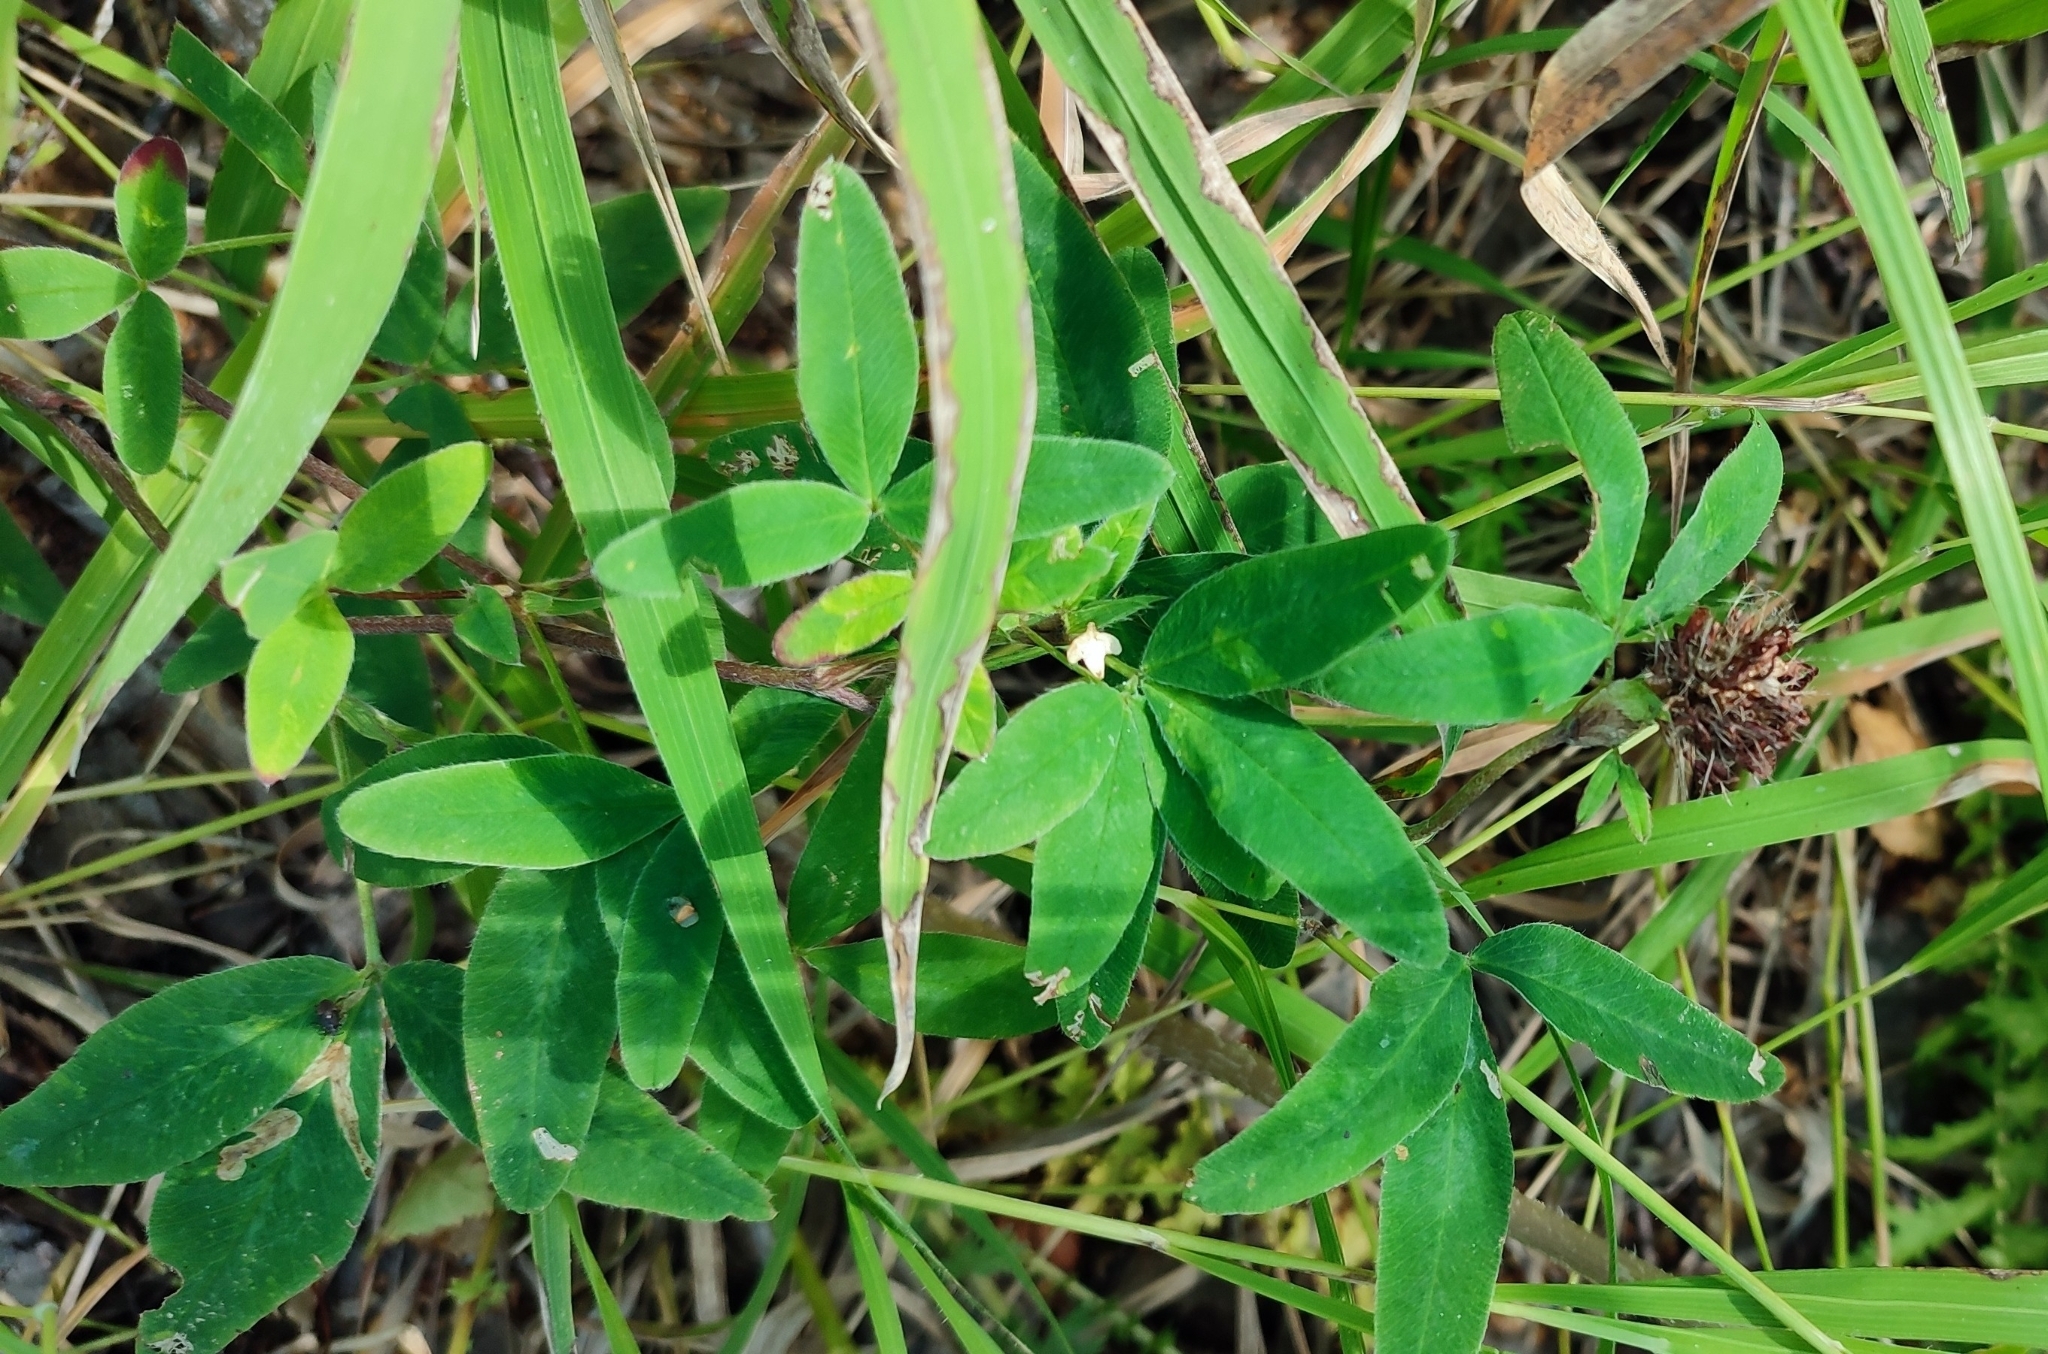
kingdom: Plantae
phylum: Tracheophyta
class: Magnoliopsida
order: Fabales
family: Fabaceae
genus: Trifolium
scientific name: Trifolium medium
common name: Zigzag clover
